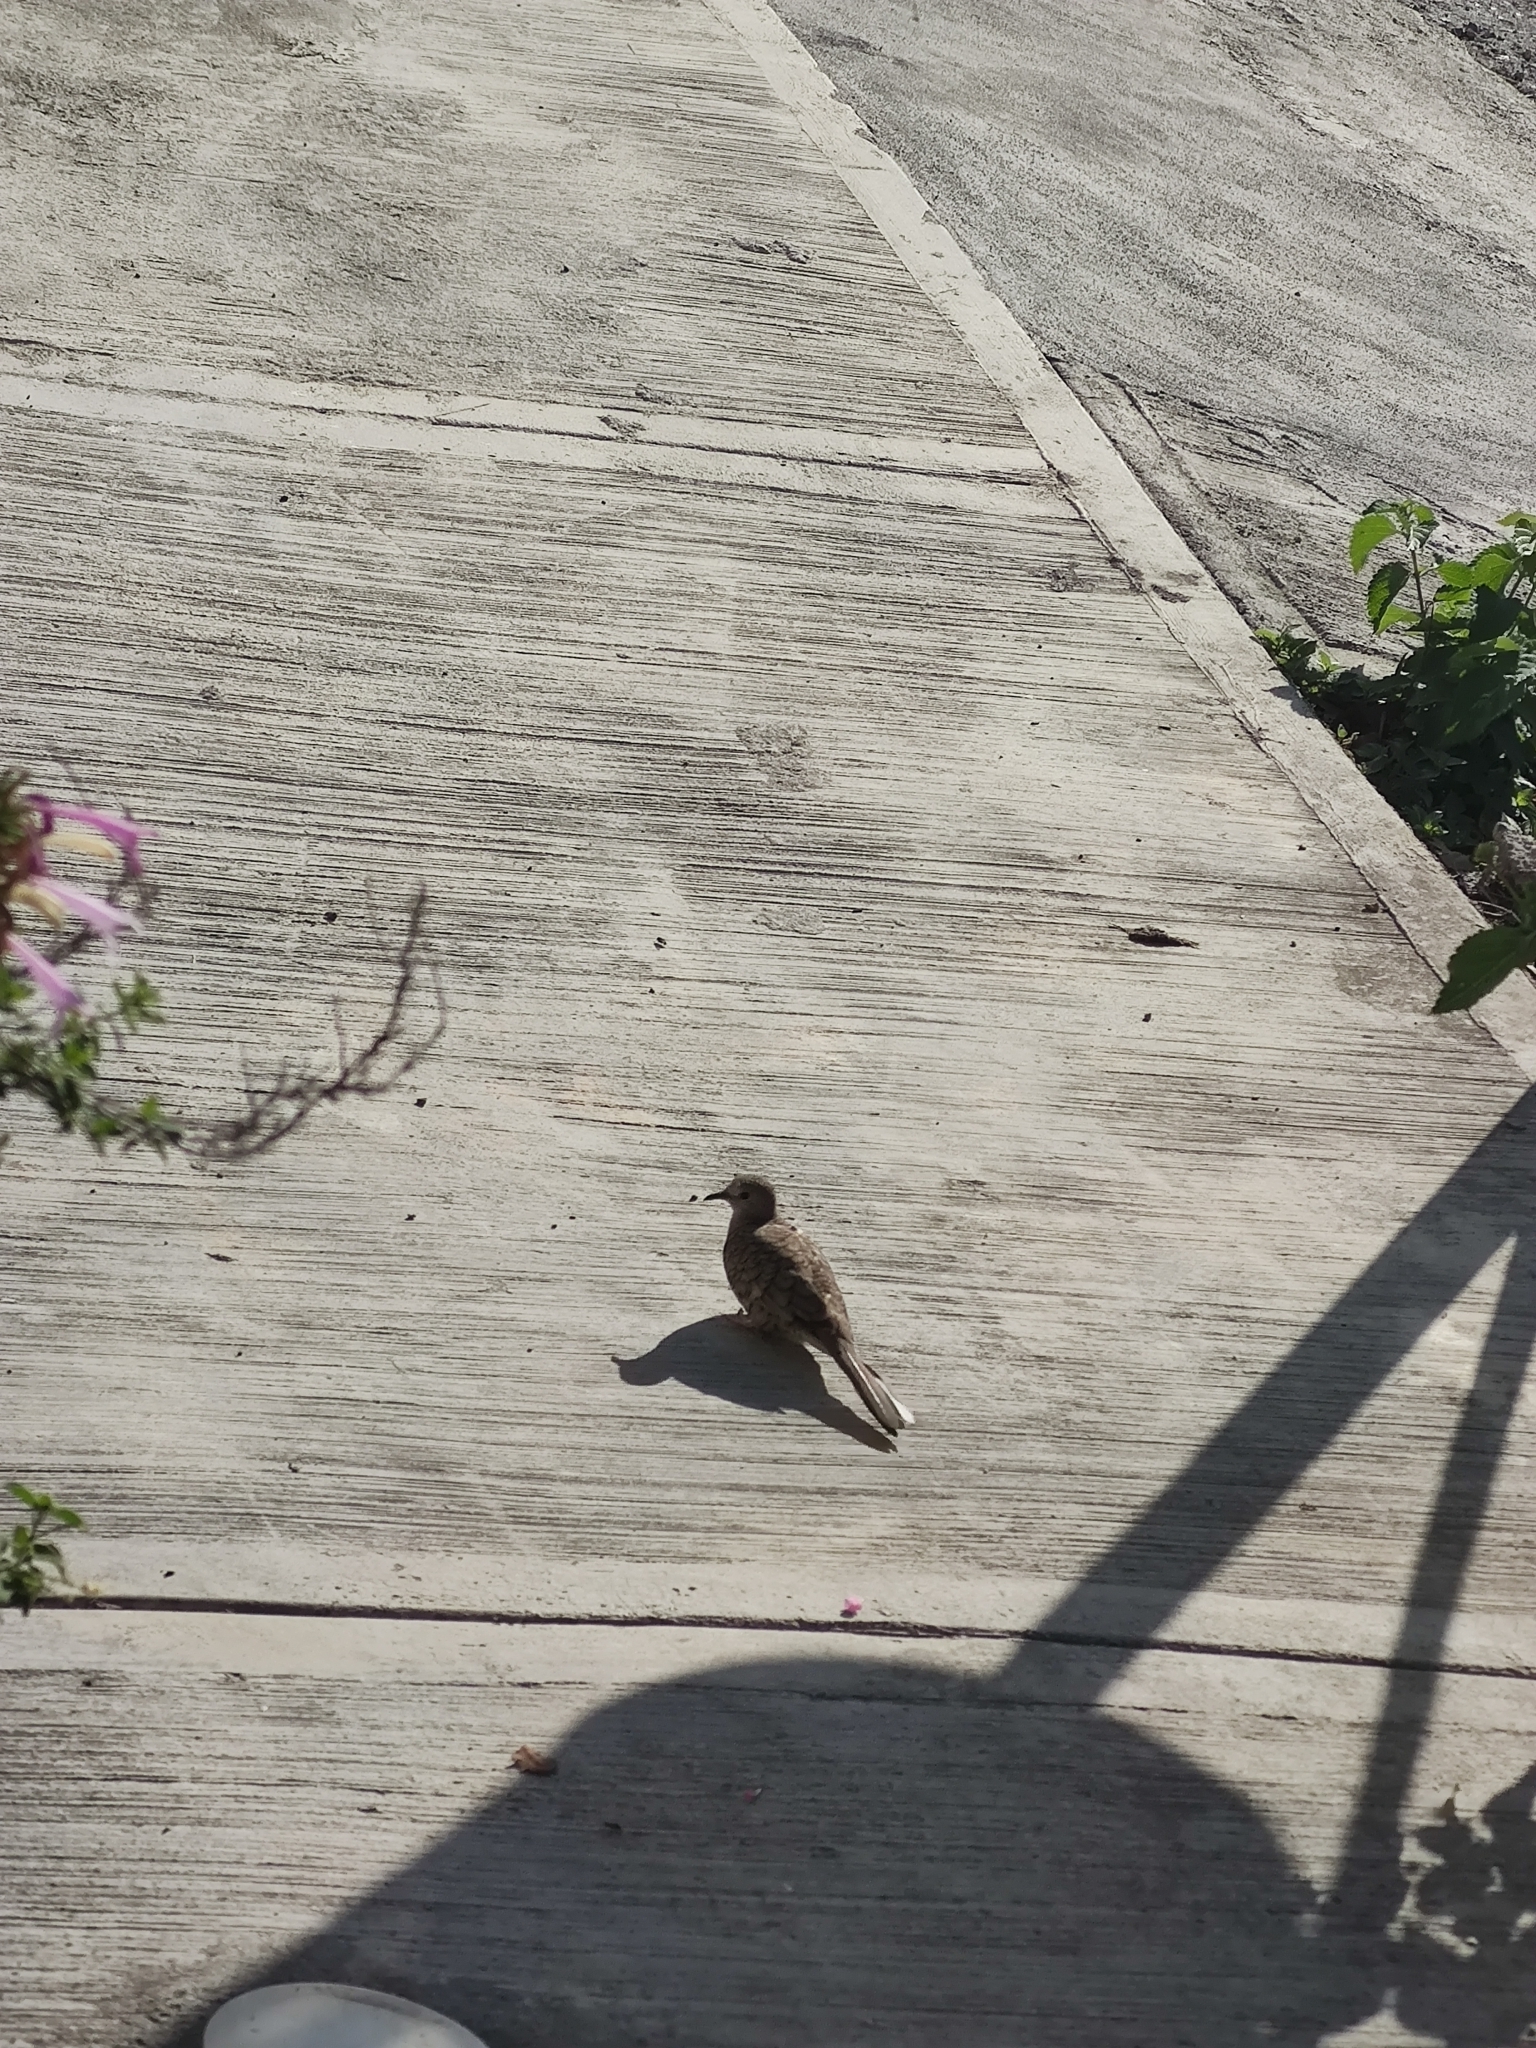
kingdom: Animalia
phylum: Chordata
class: Aves
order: Columbiformes
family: Columbidae
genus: Columbina
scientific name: Columbina inca
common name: Inca dove
